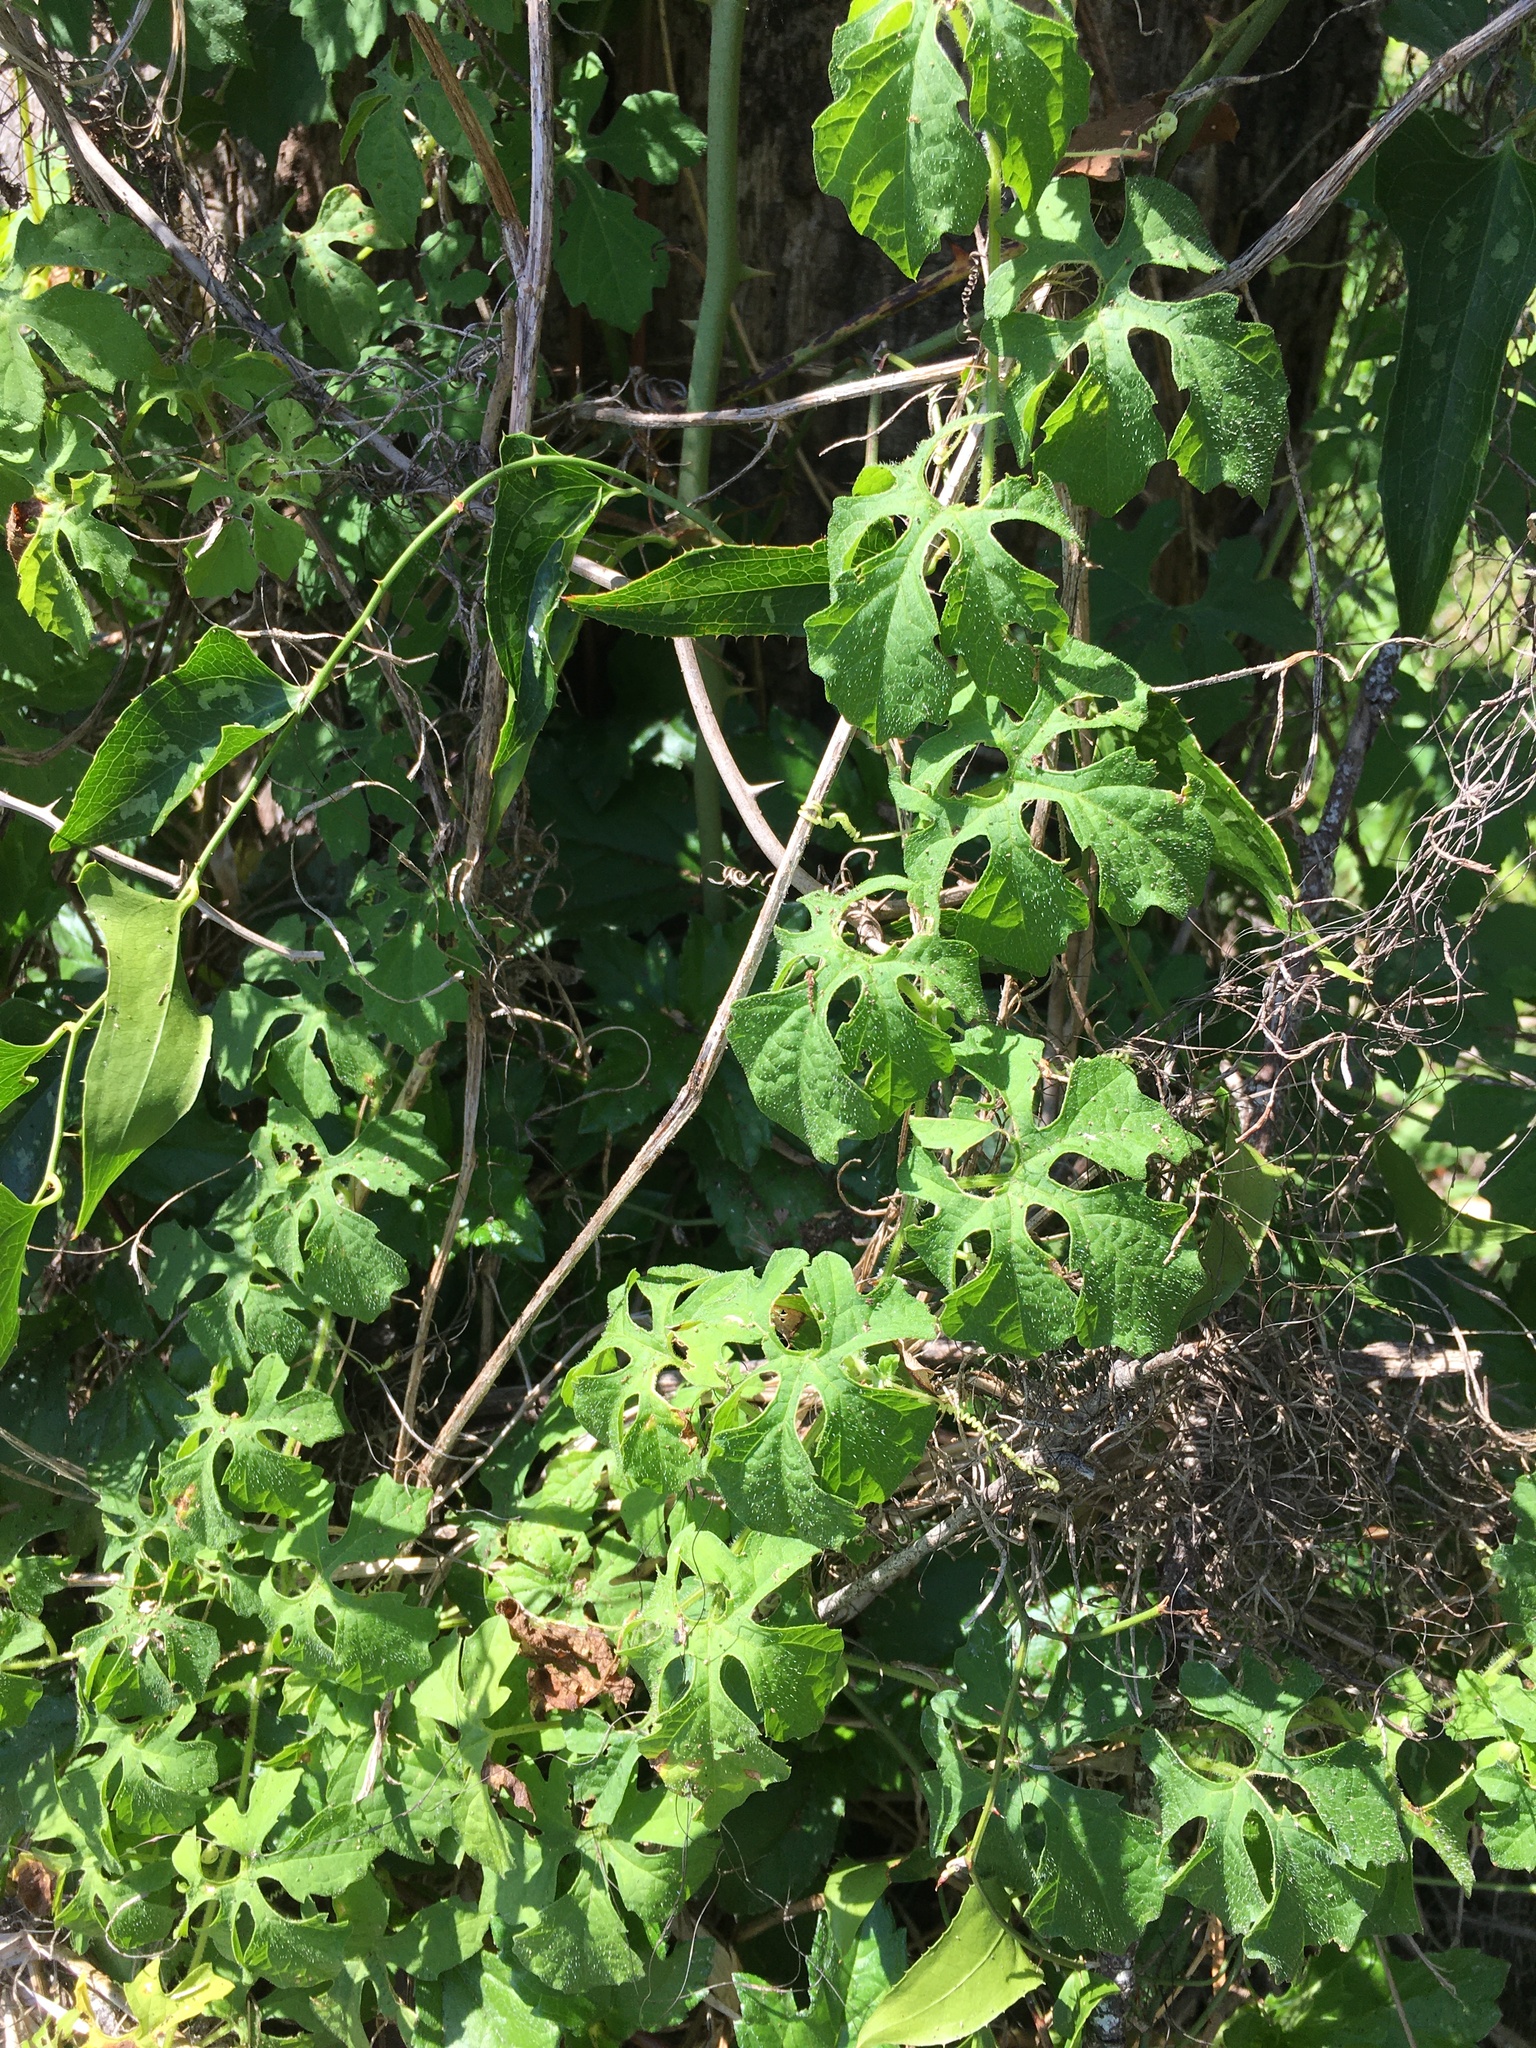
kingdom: Plantae
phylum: Tracheophyta
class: Magnoliopsida
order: Cucurbitales
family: Cucurbitaceae
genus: Momordica
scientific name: Momordica charantia
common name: Balsampear
